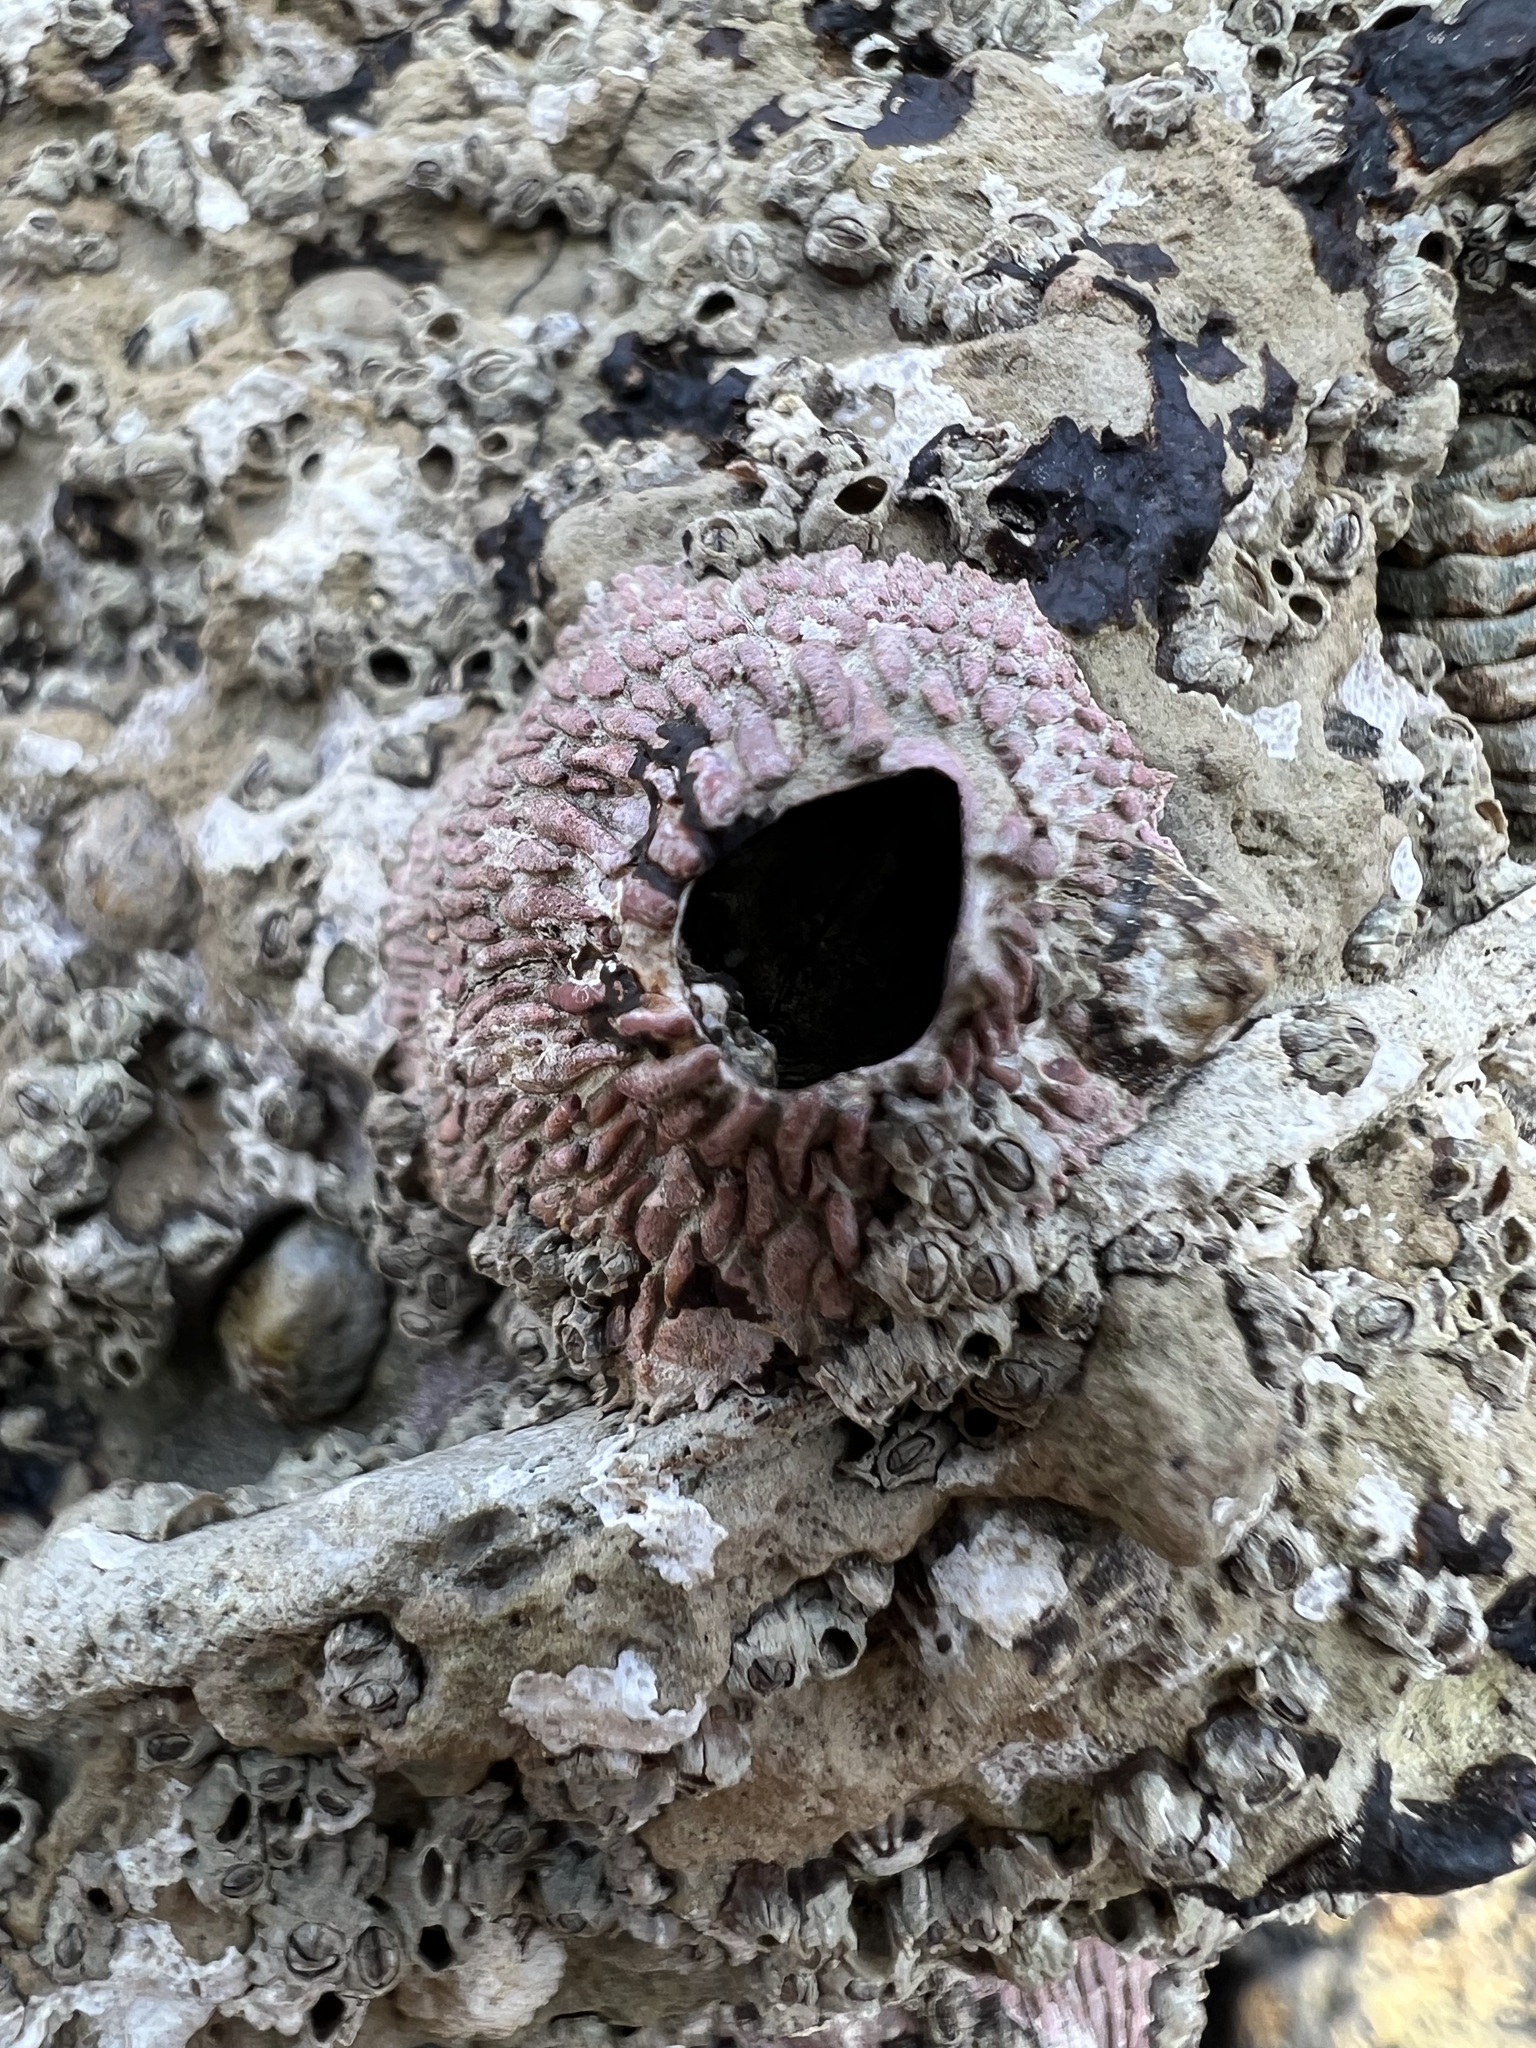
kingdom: Animalia
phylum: Arthropoda
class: Maxillopoda
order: Sessilia
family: Tetraclitidae
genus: Tetraclita
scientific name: Tetraclita rubescens
